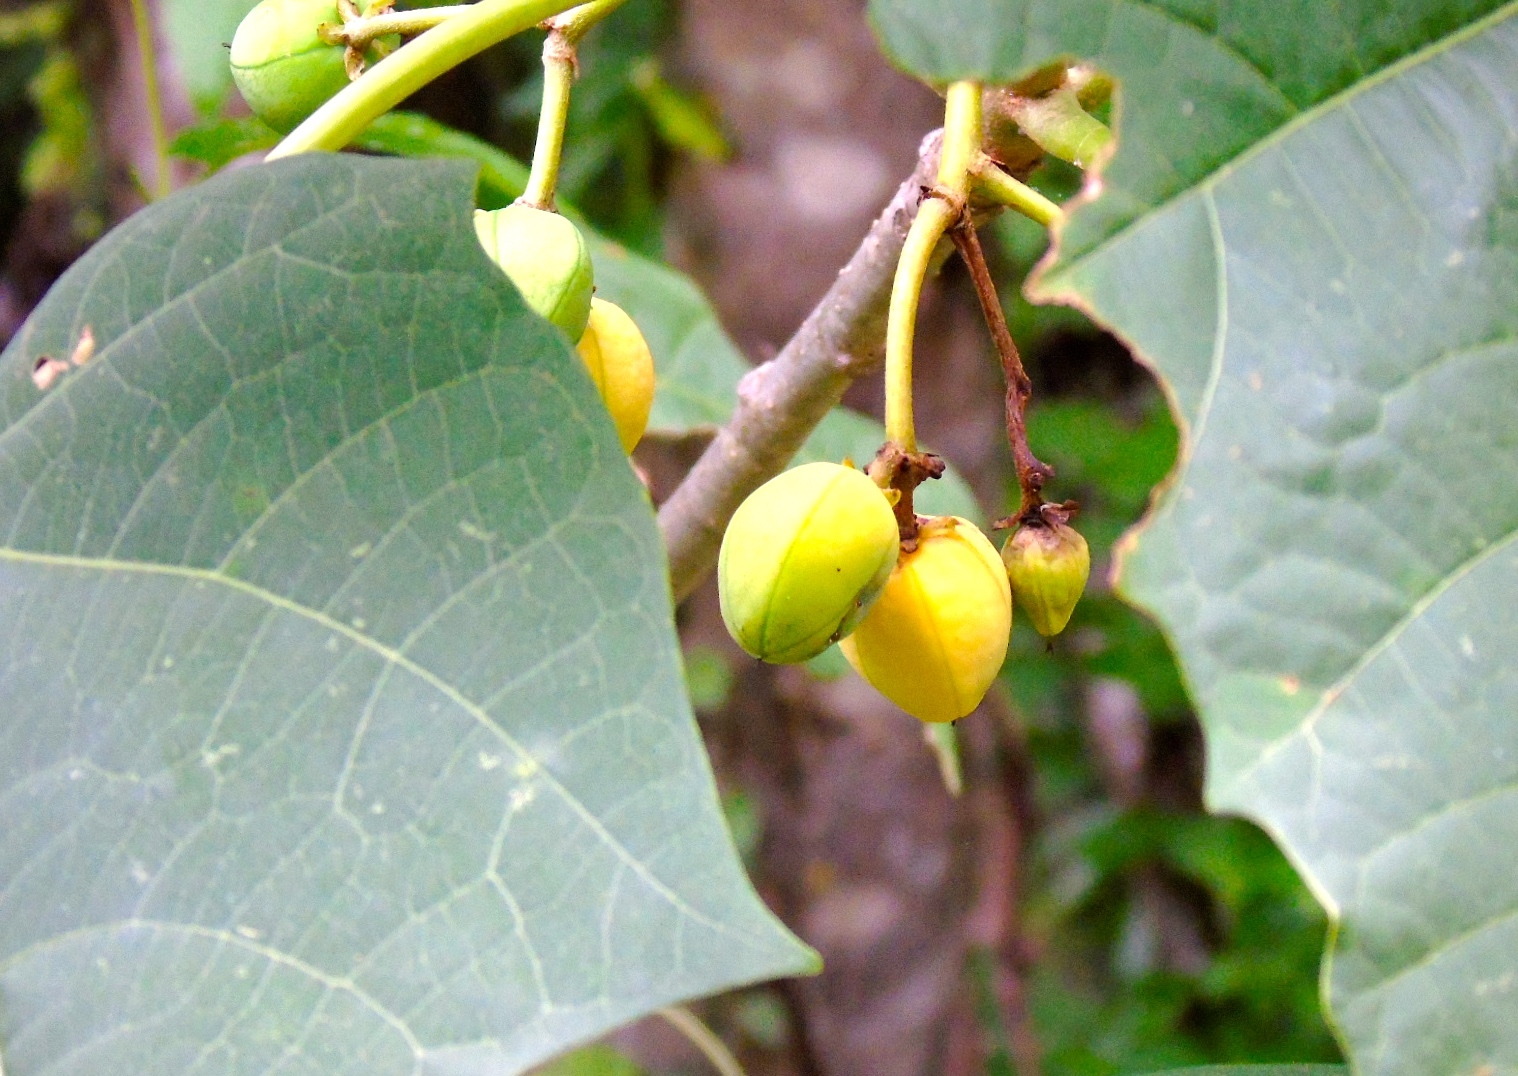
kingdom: Plantae
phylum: Tracheophyta
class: Magnoliopsida
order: Malpighiales
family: Euphorbiaceae
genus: Jatropha
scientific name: Jatropha curcas
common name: Barbados nut
